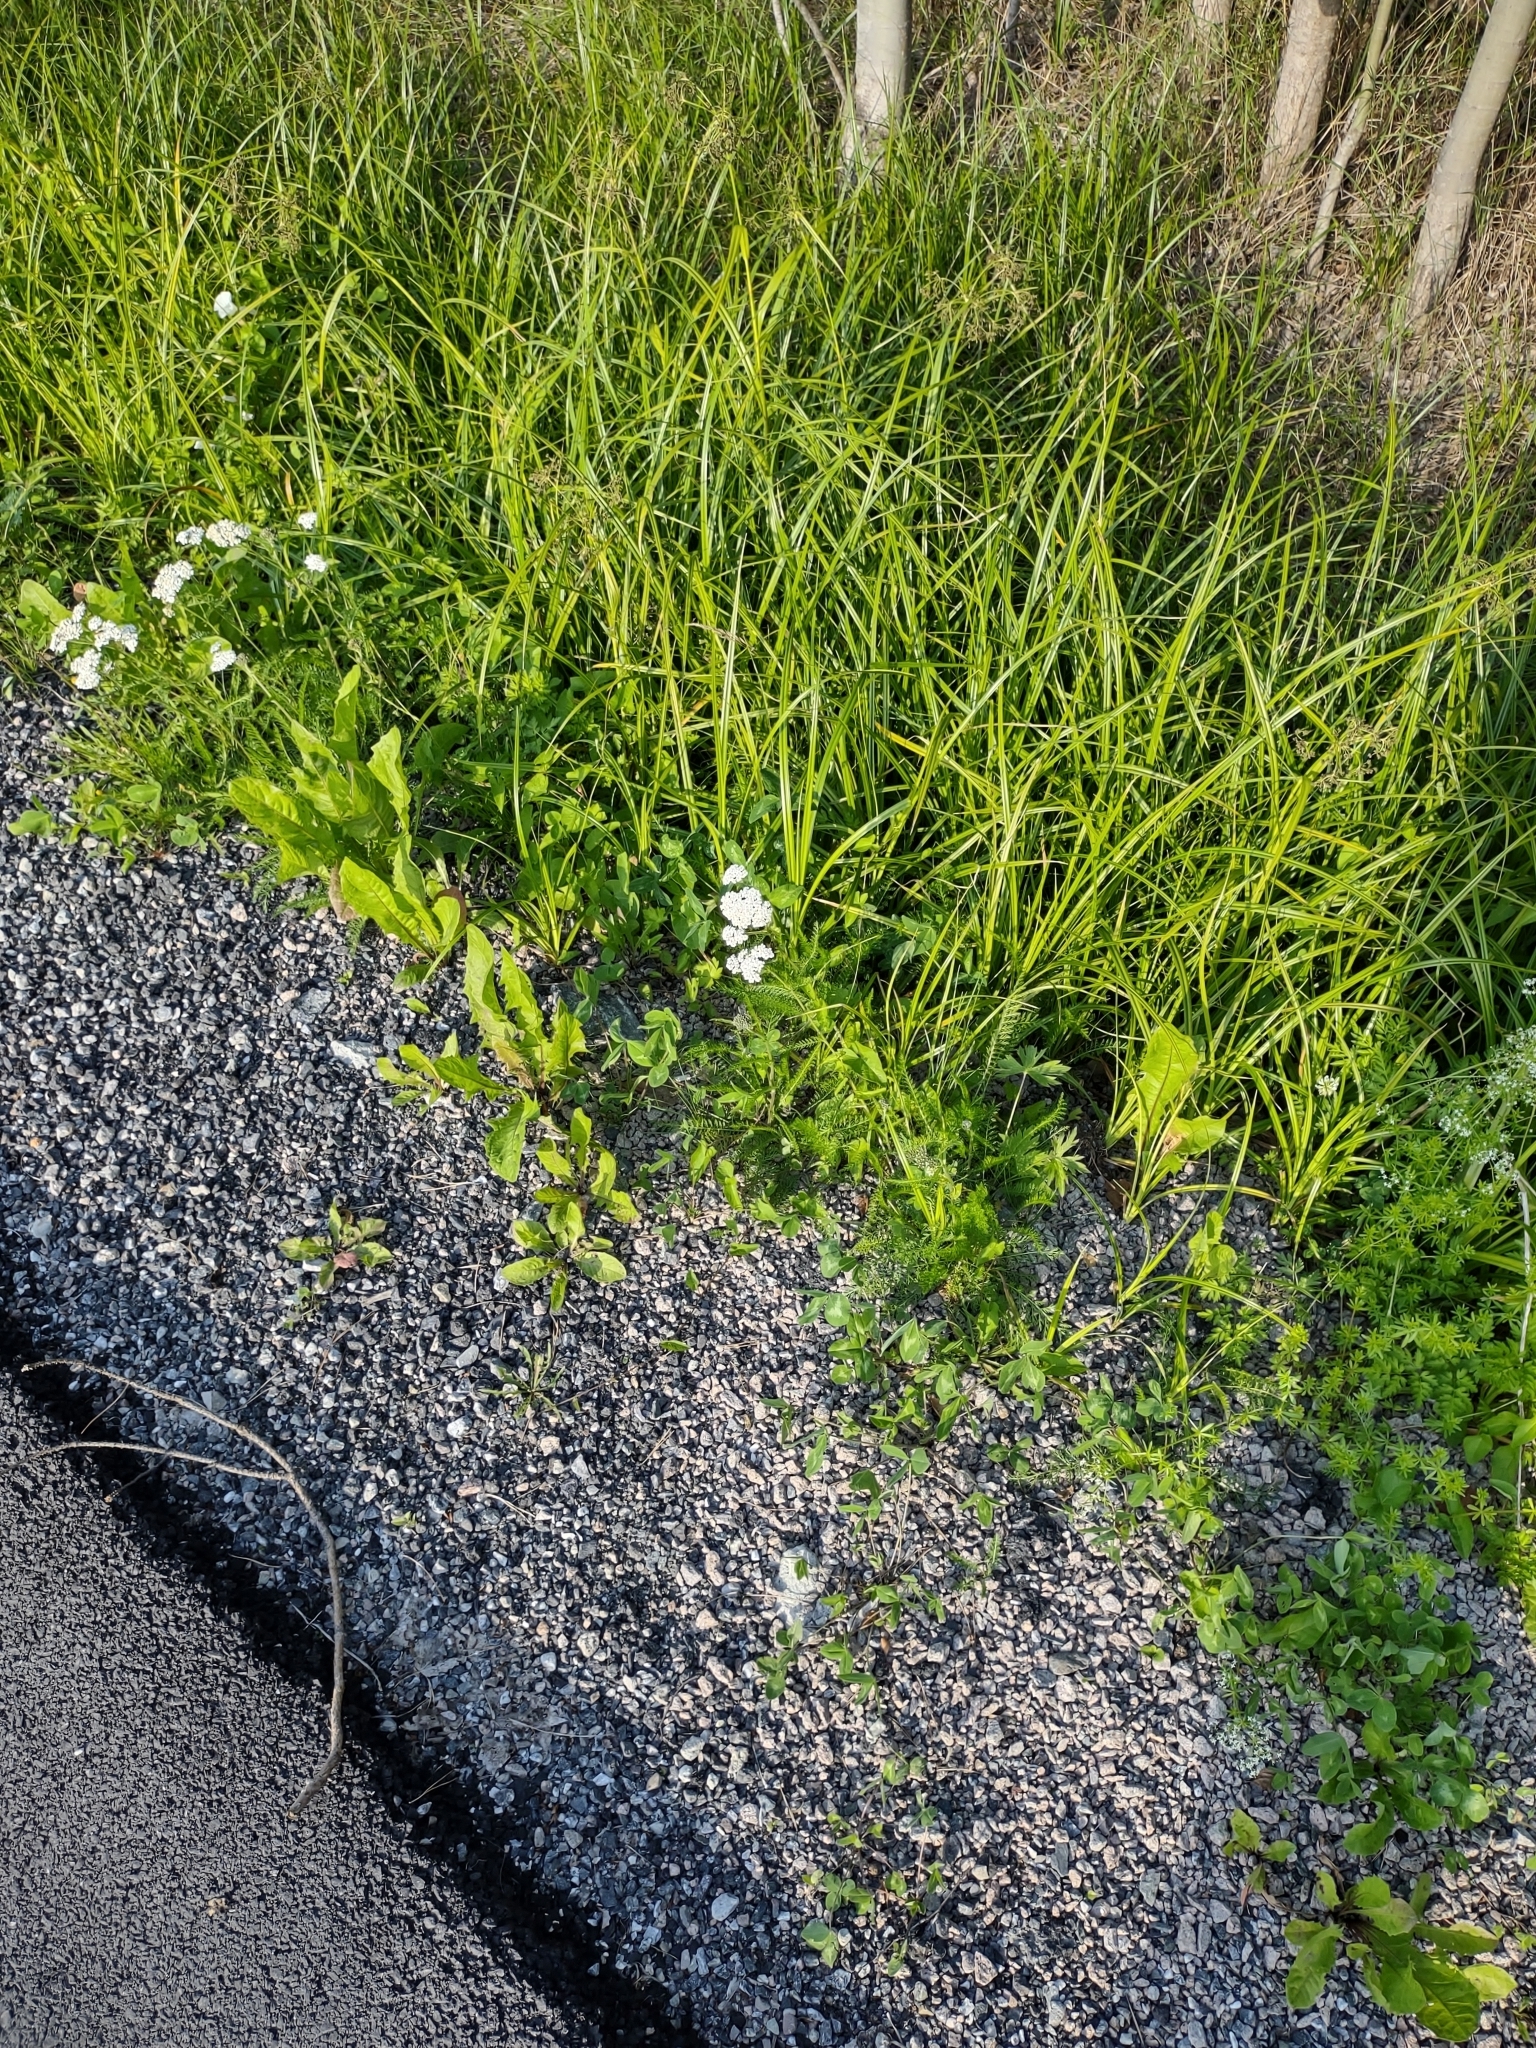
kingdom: Plantae
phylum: Tracheophyta
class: Magnoliopsida
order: Asterales
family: Asteraceae
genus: Achillea
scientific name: Achillea millefolium
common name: Yarrow
